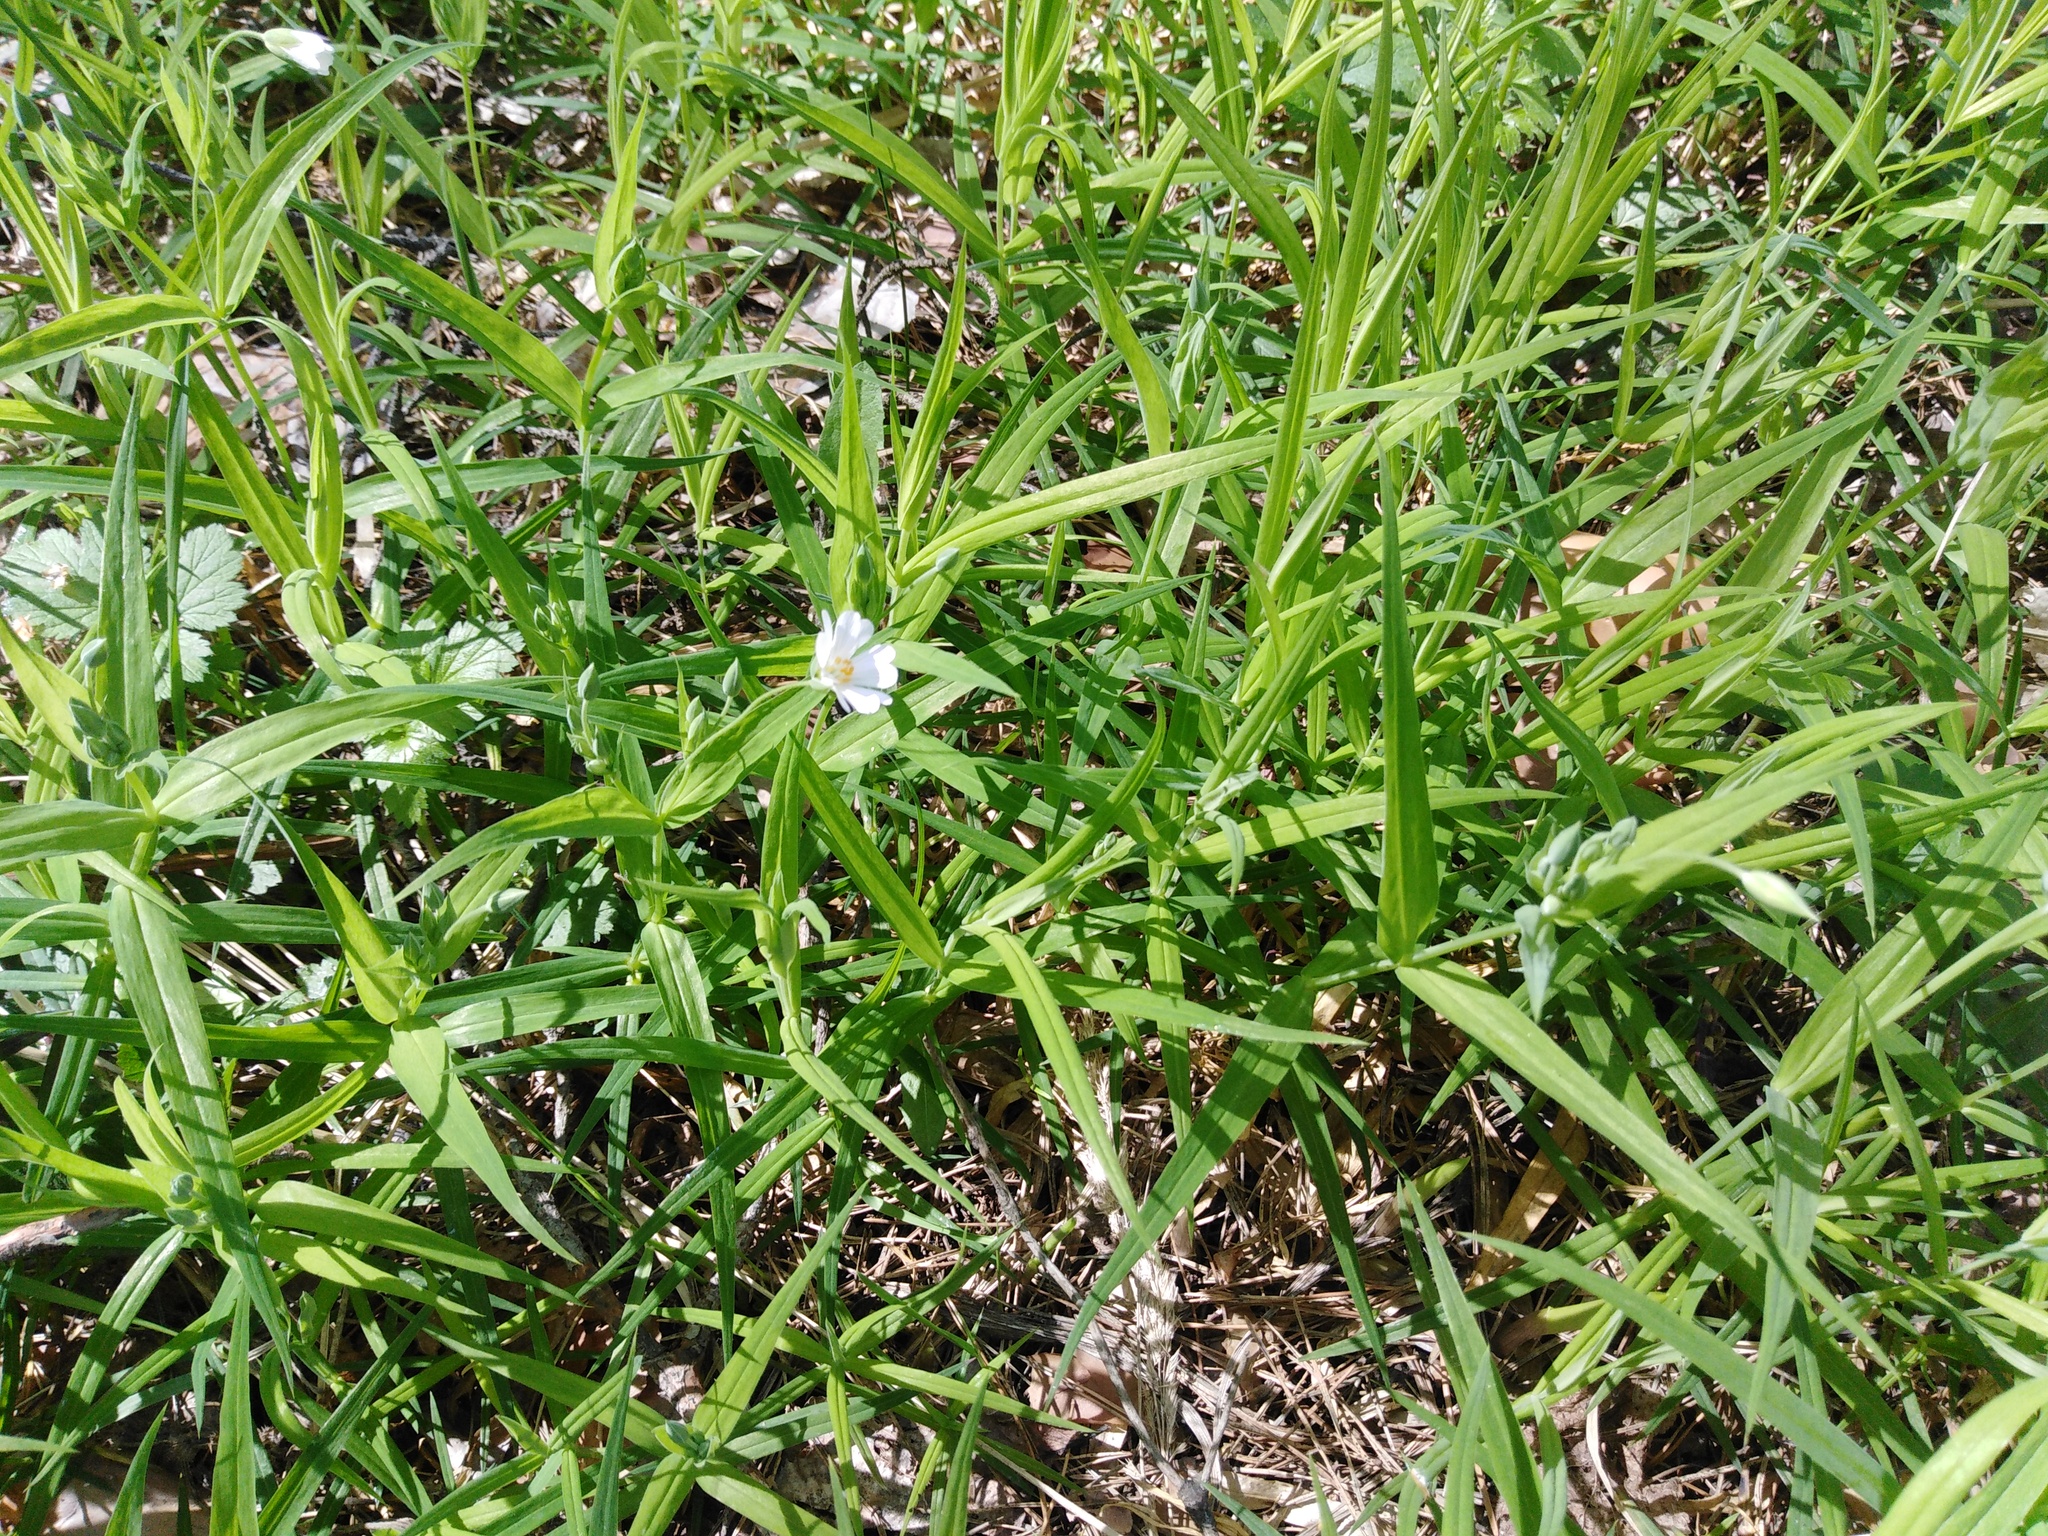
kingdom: Plantae
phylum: Tracheophyta
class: Magnoliopsida
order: Caryophyllales
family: Caryophyllaceae
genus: Rabelera
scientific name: Rabelera holostea
